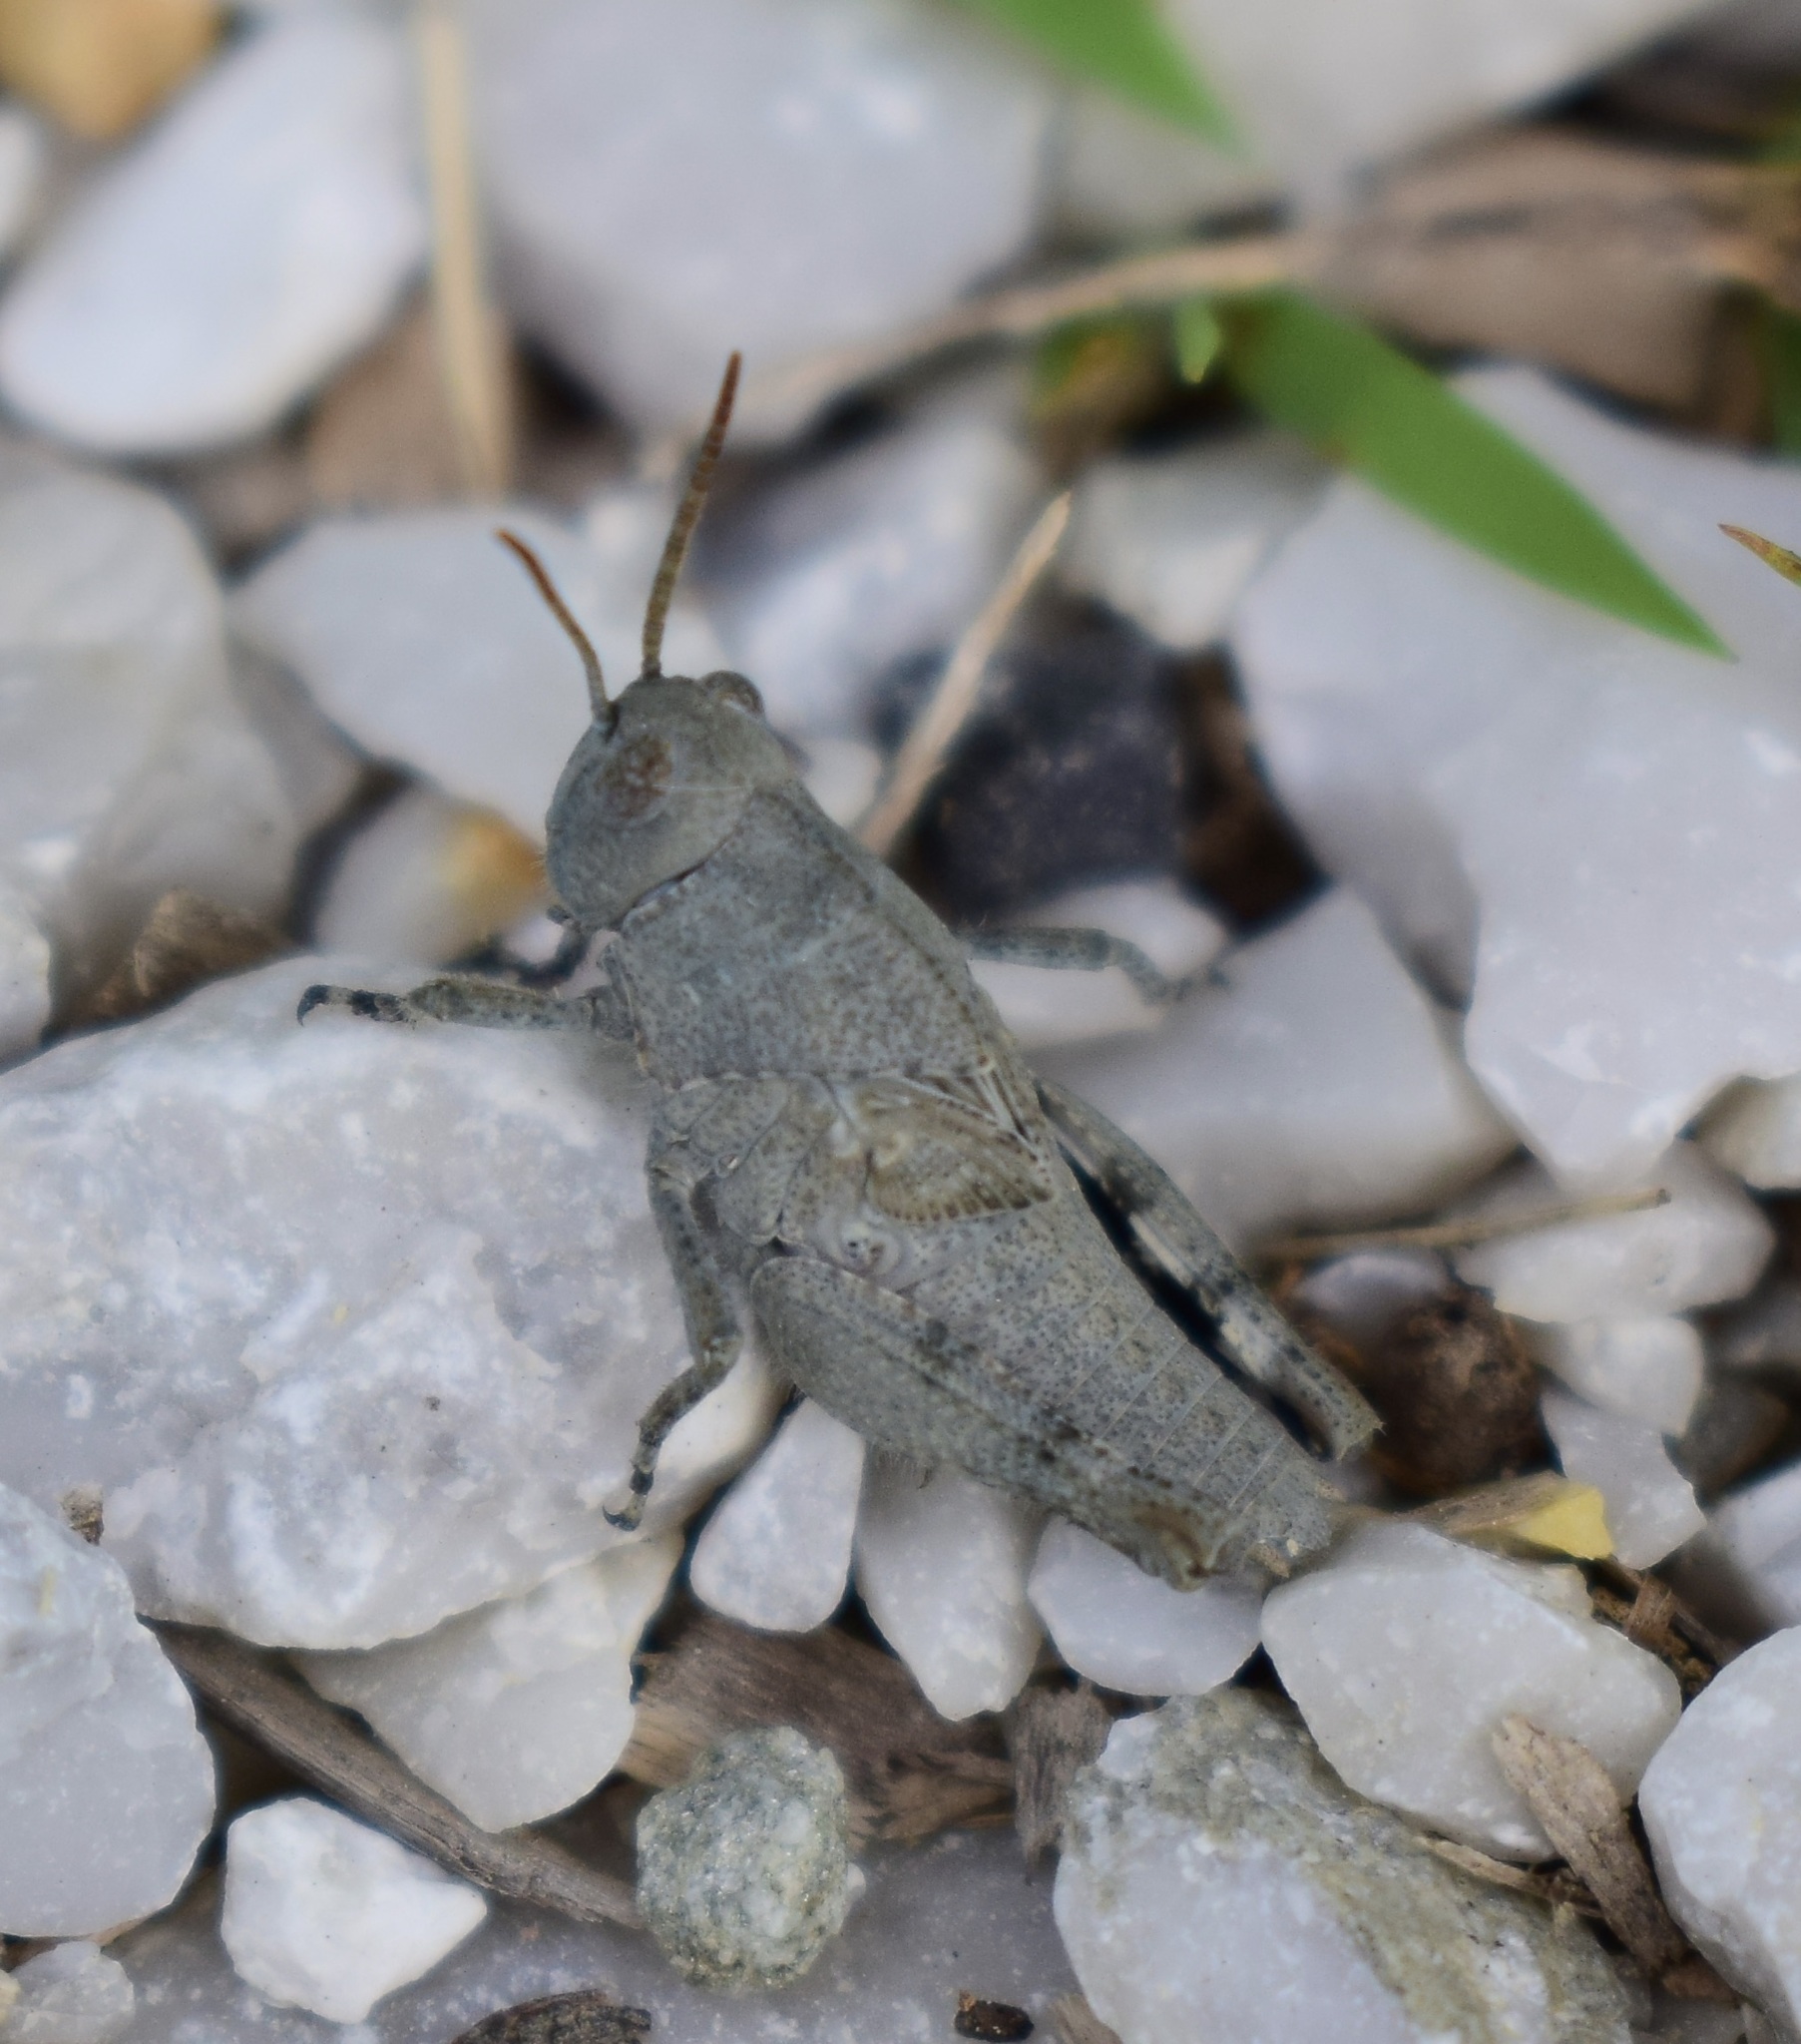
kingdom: Animalia
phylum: Arthropoda
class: Insecta
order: Orthoptera
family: Acrididae
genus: Dissosteira
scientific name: Dissosteira carolina
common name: Carolina grasshopper
